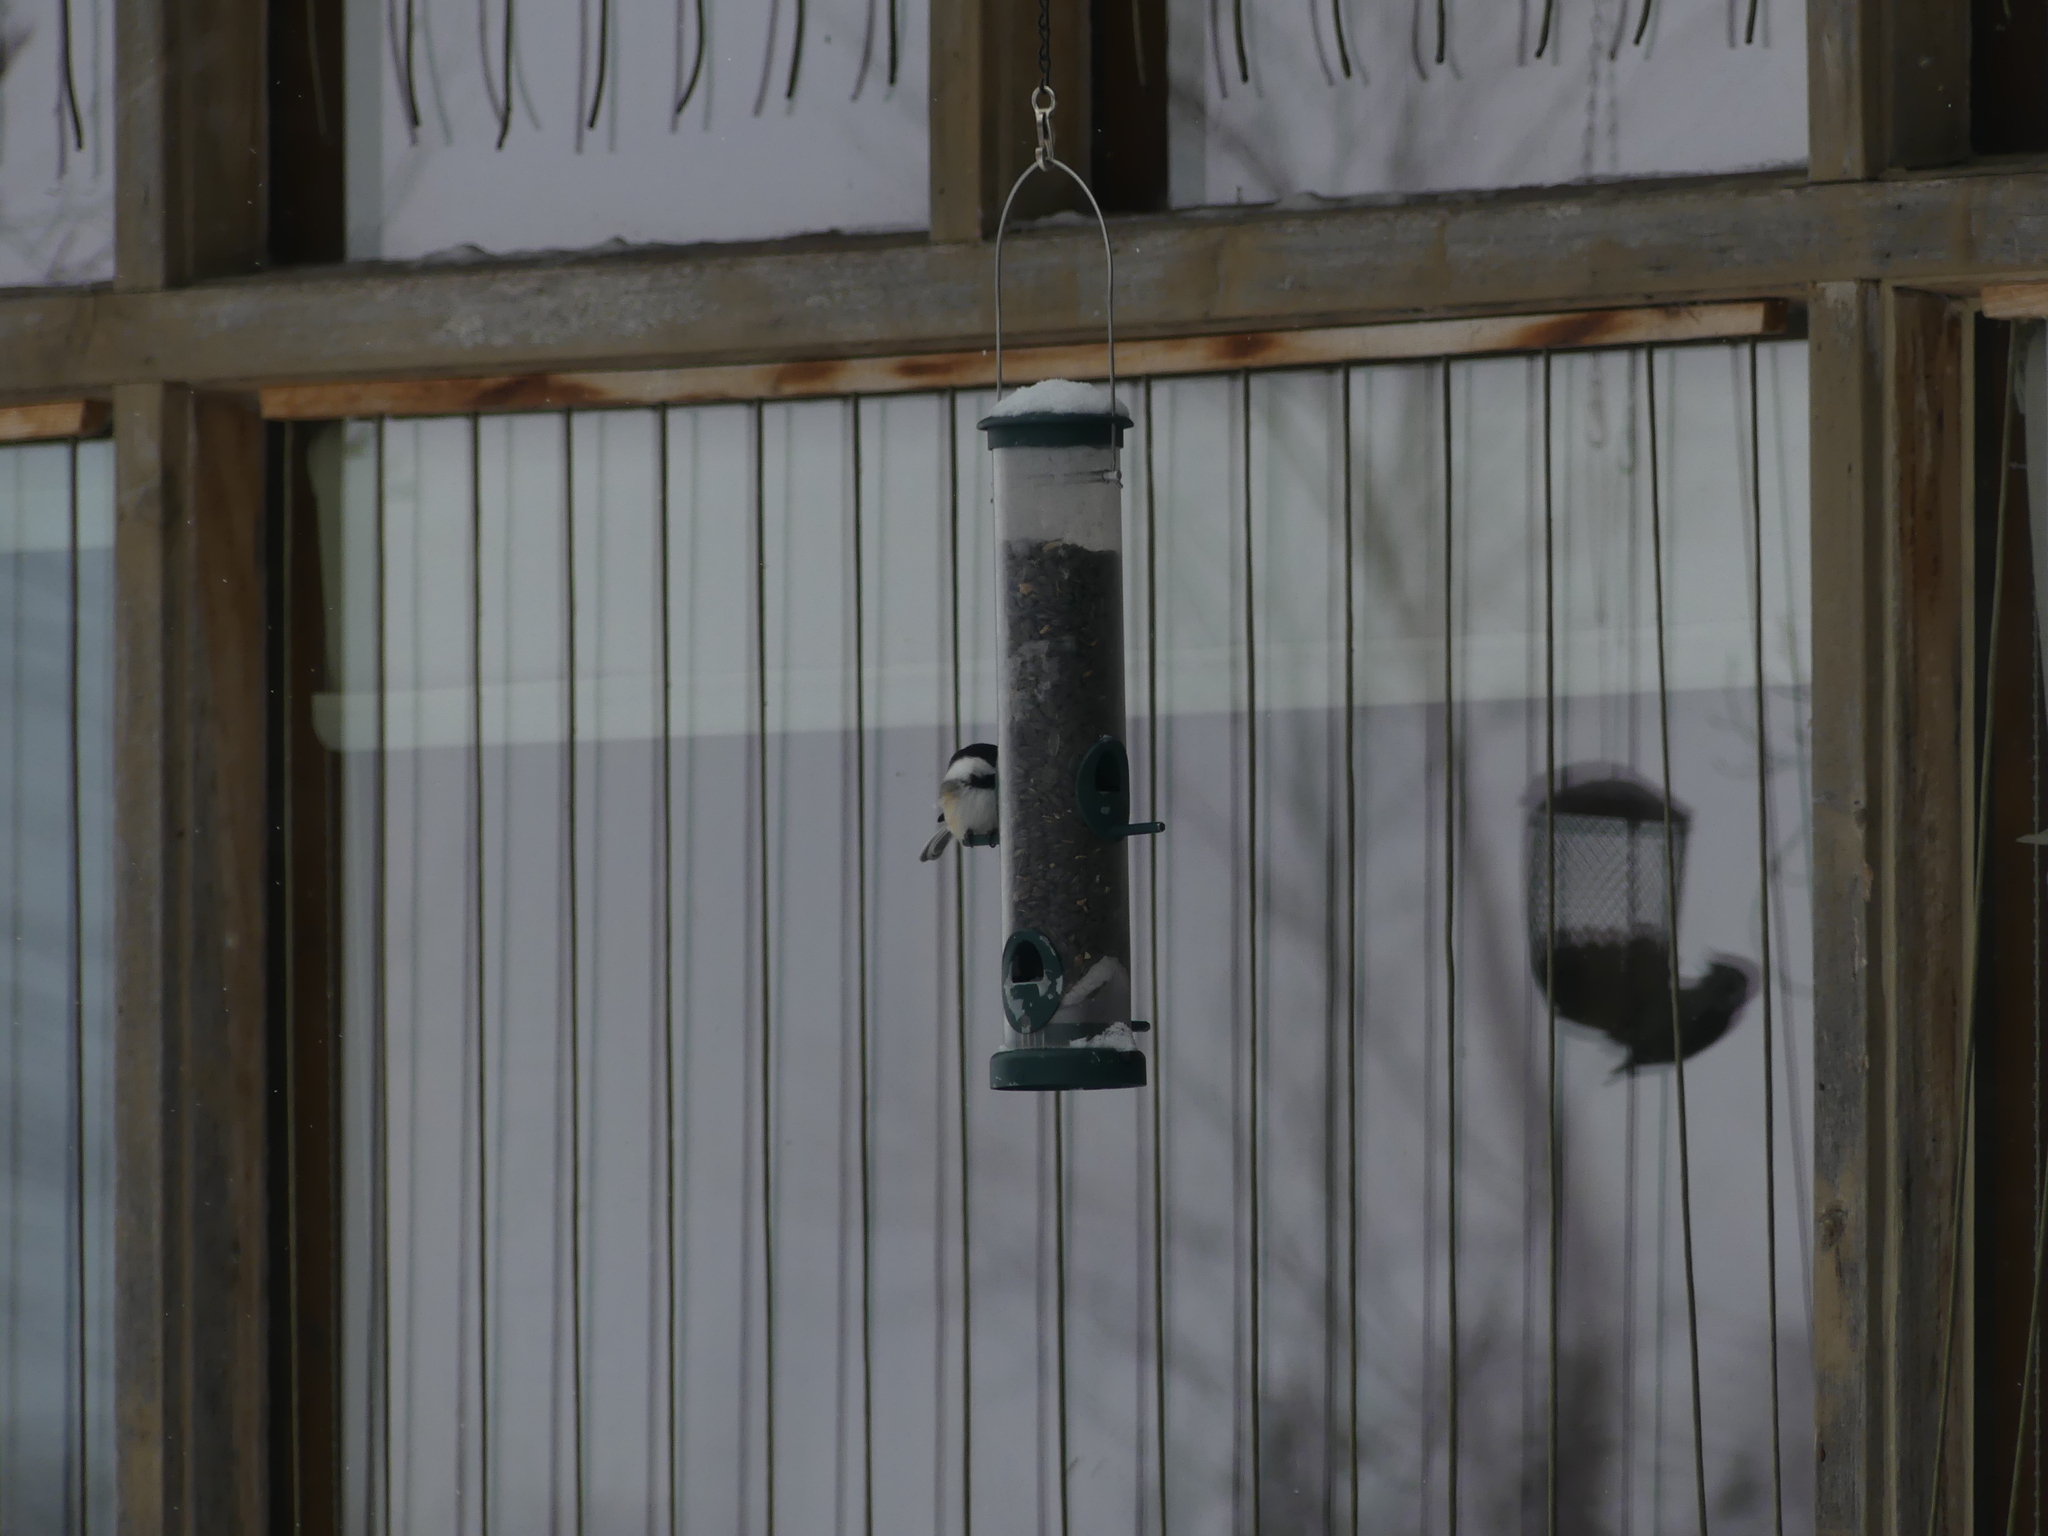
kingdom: Animalia
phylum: Chordata
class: Aves
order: Passeriformes
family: Paridae
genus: Poecile
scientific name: Poecile atricapillus
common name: Black-capped chickadee
